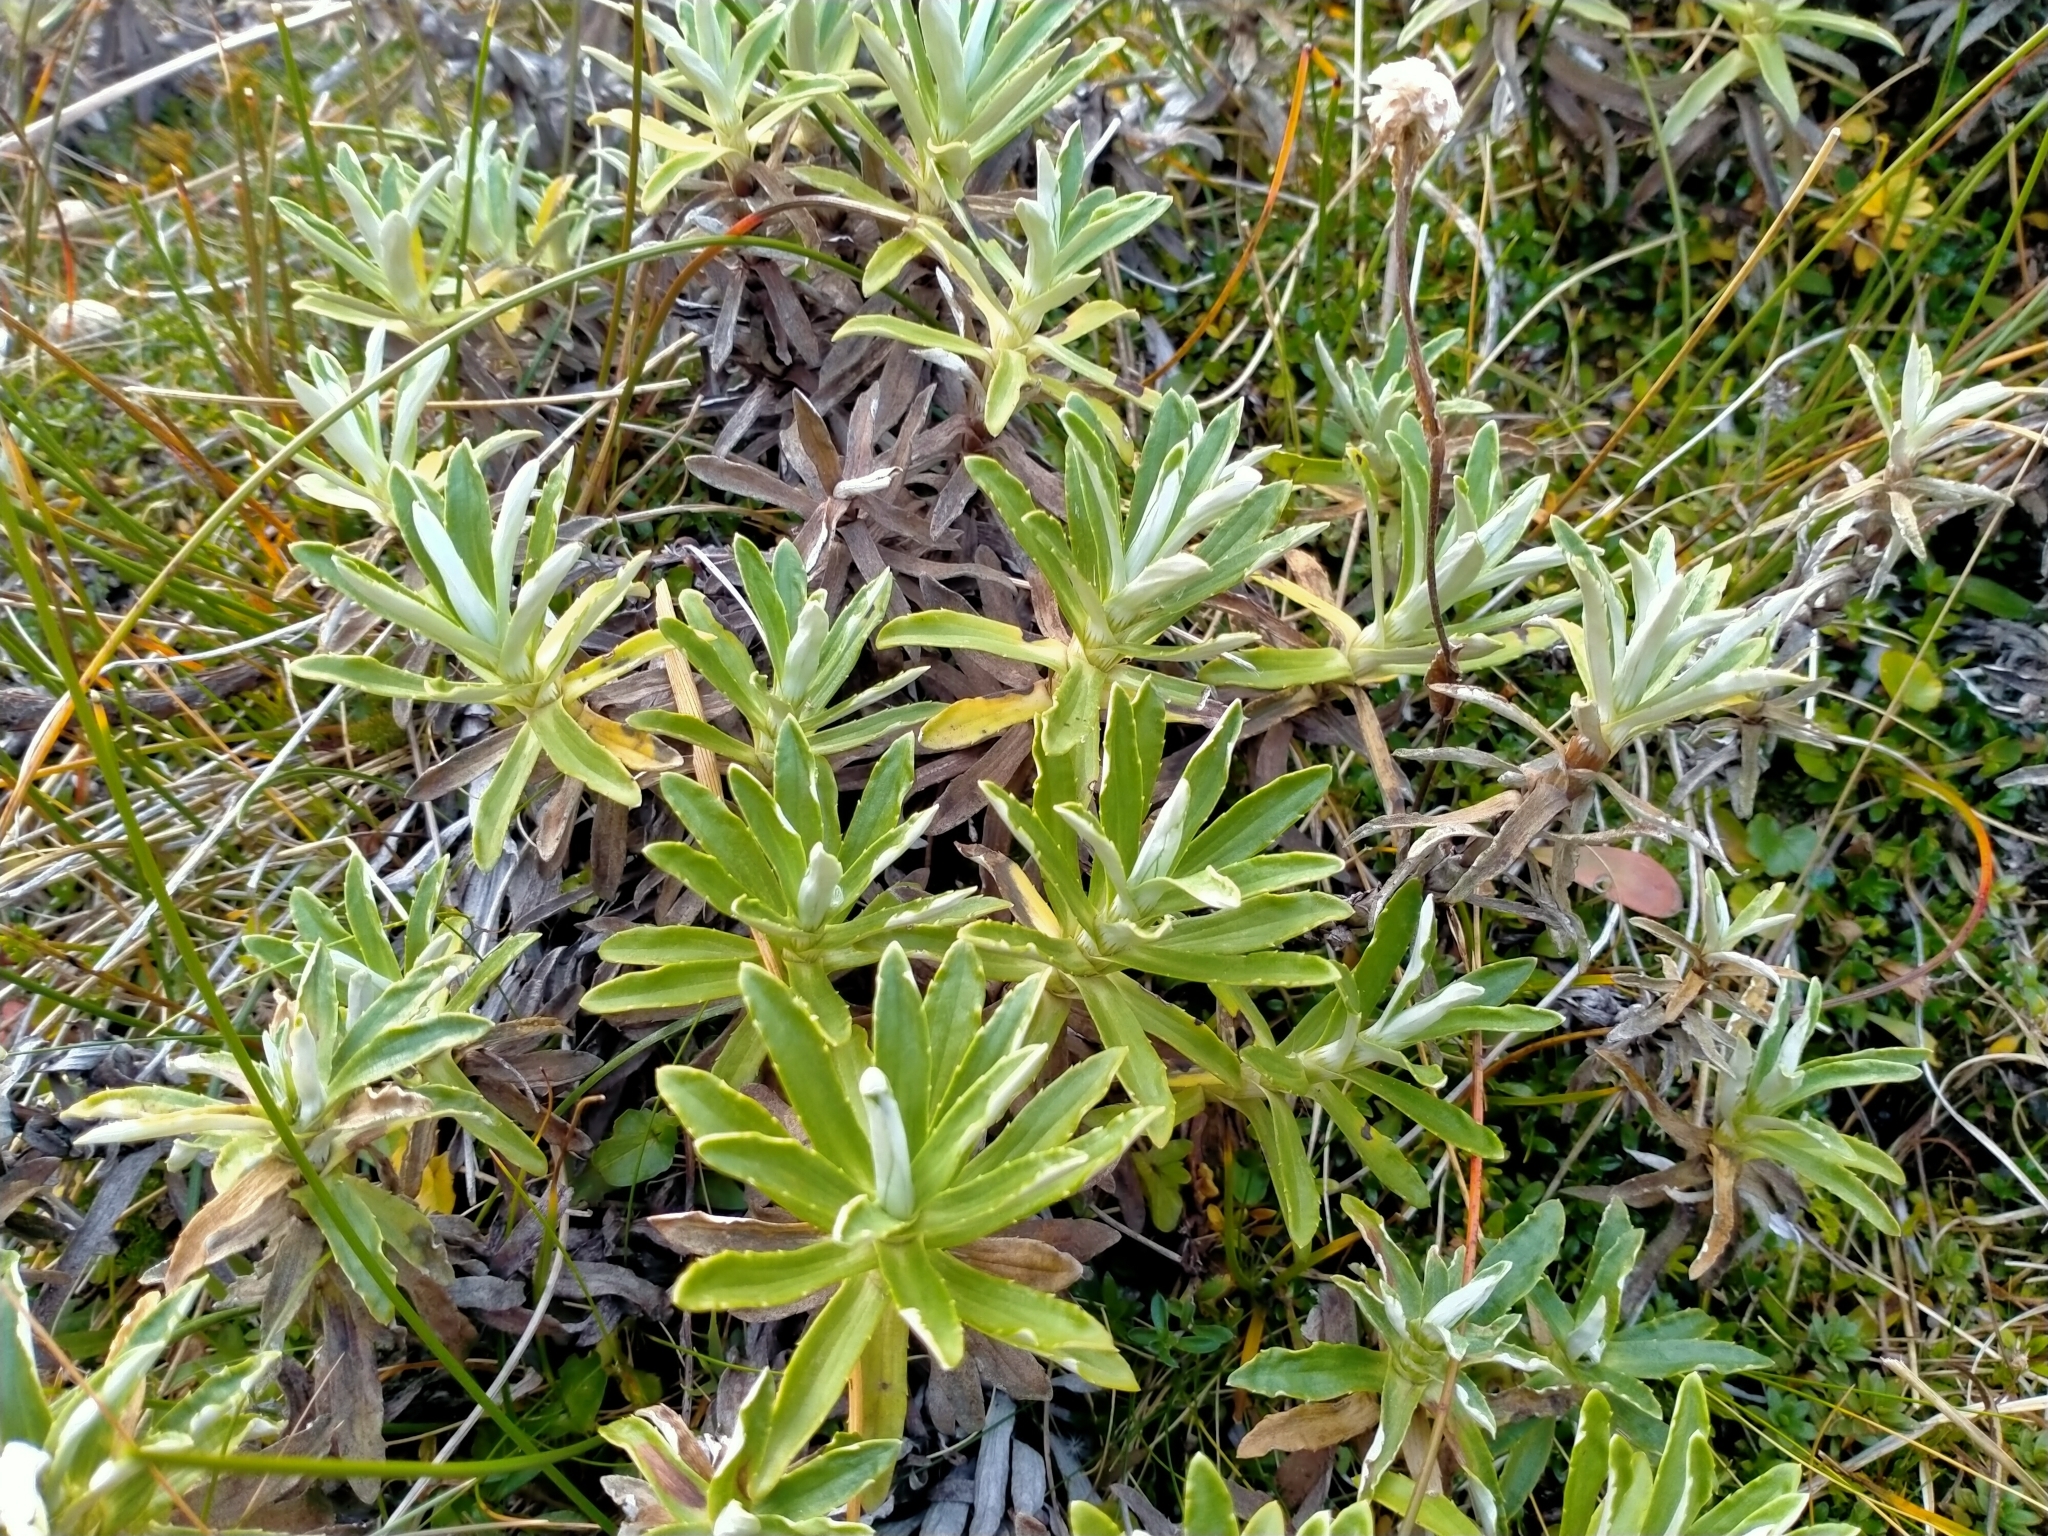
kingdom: Plantae
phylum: Tracheophyta
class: Magnoliopsida
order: Asterales
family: Asteraceae
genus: Celmisia
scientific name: Celmisia angustifolia
